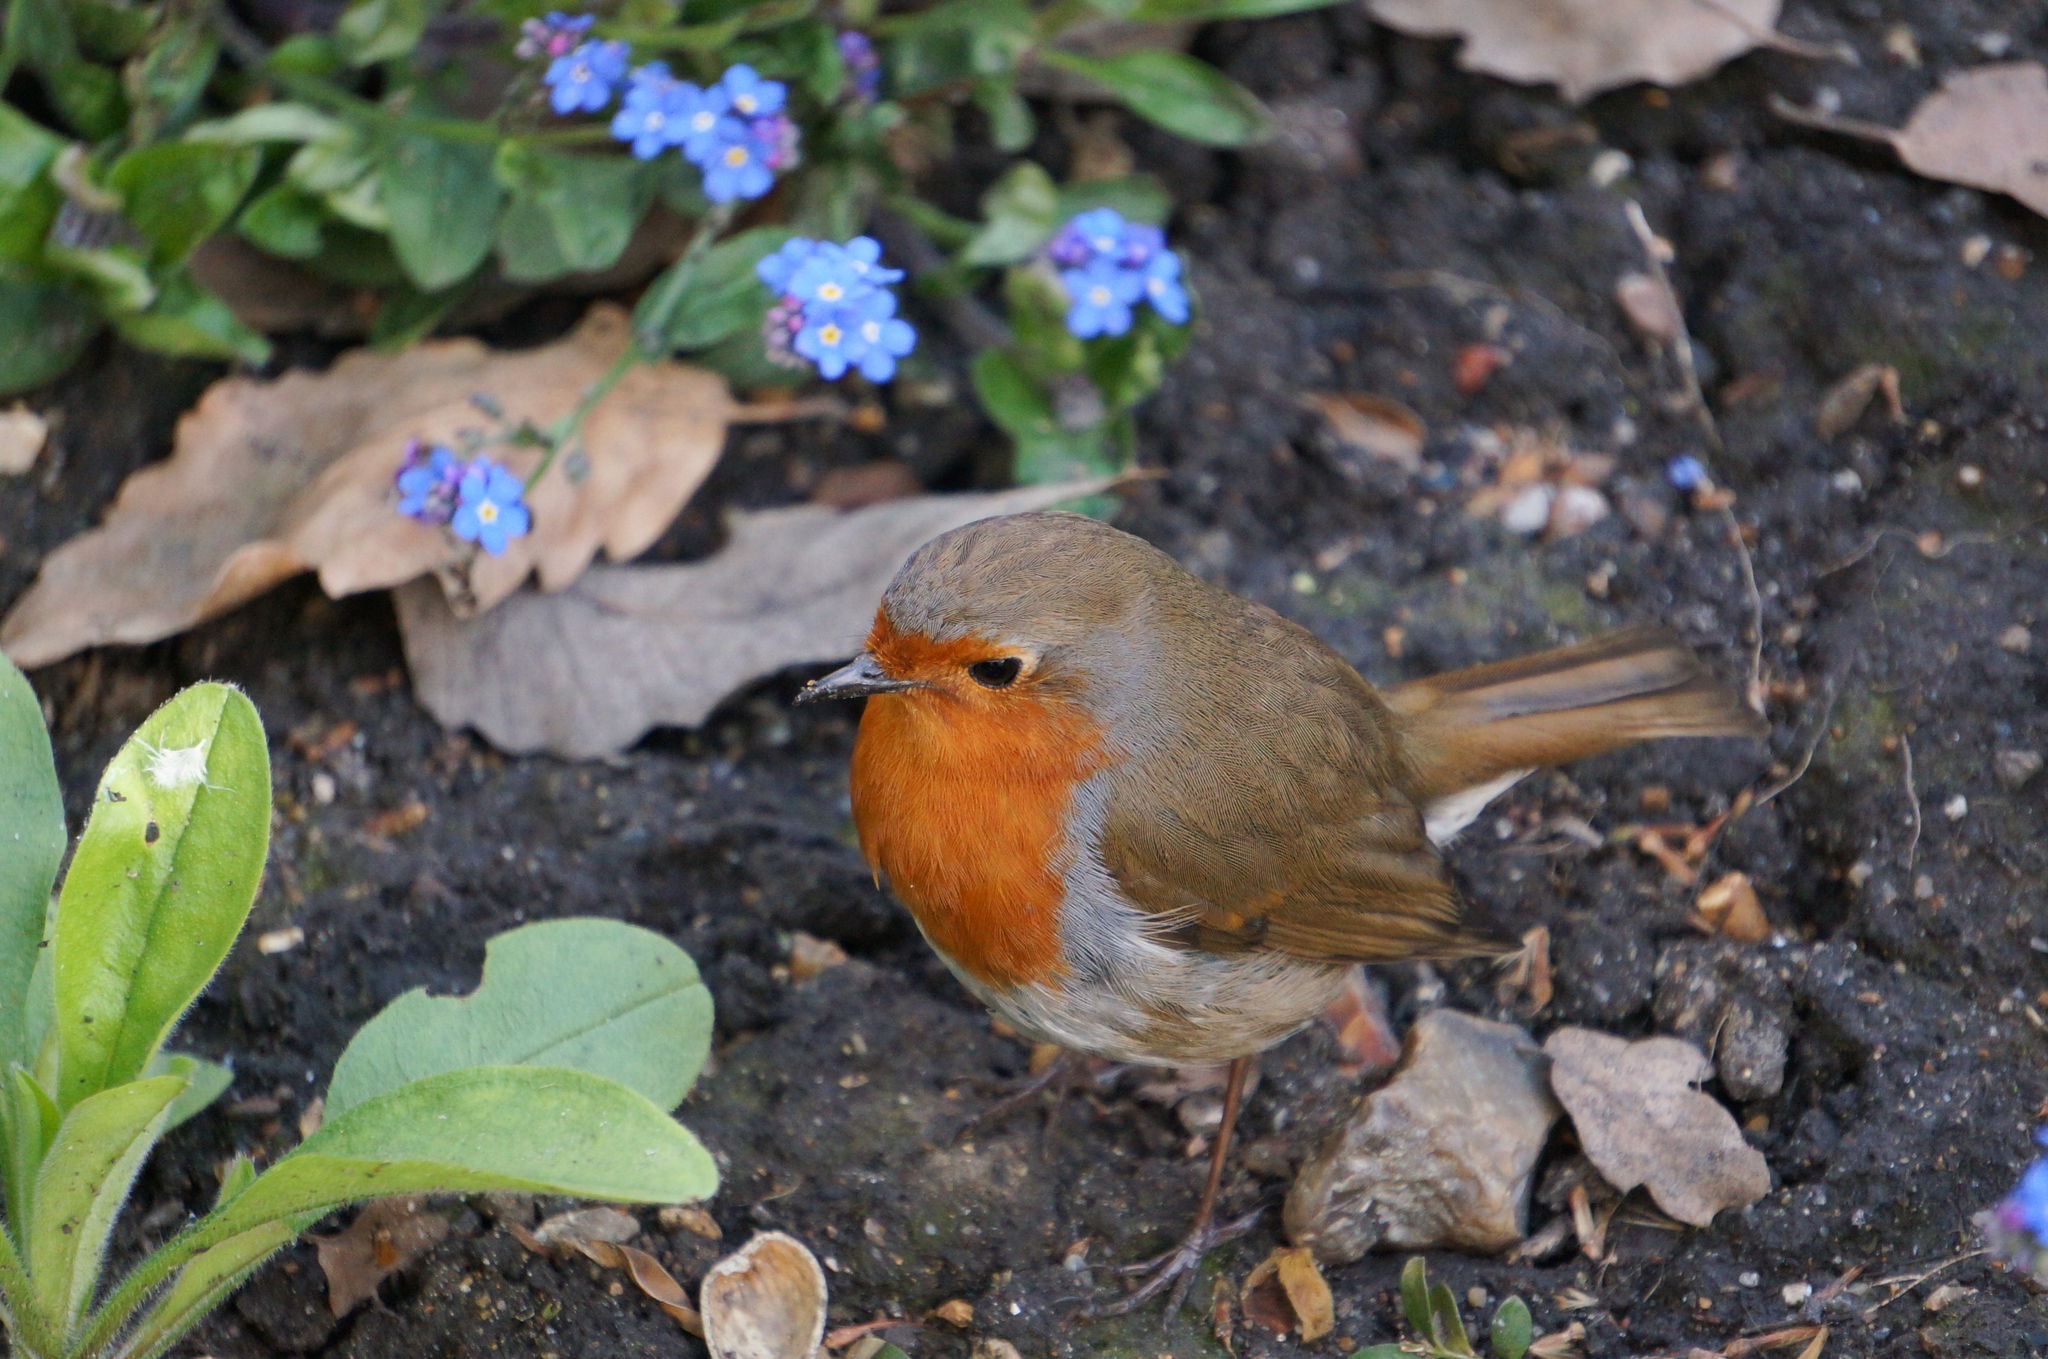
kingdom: Animalia
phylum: Chordata
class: Aves
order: Passeriformes
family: Muscicapidae
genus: Erithacus
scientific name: Erithacus rubecula
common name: European robin
